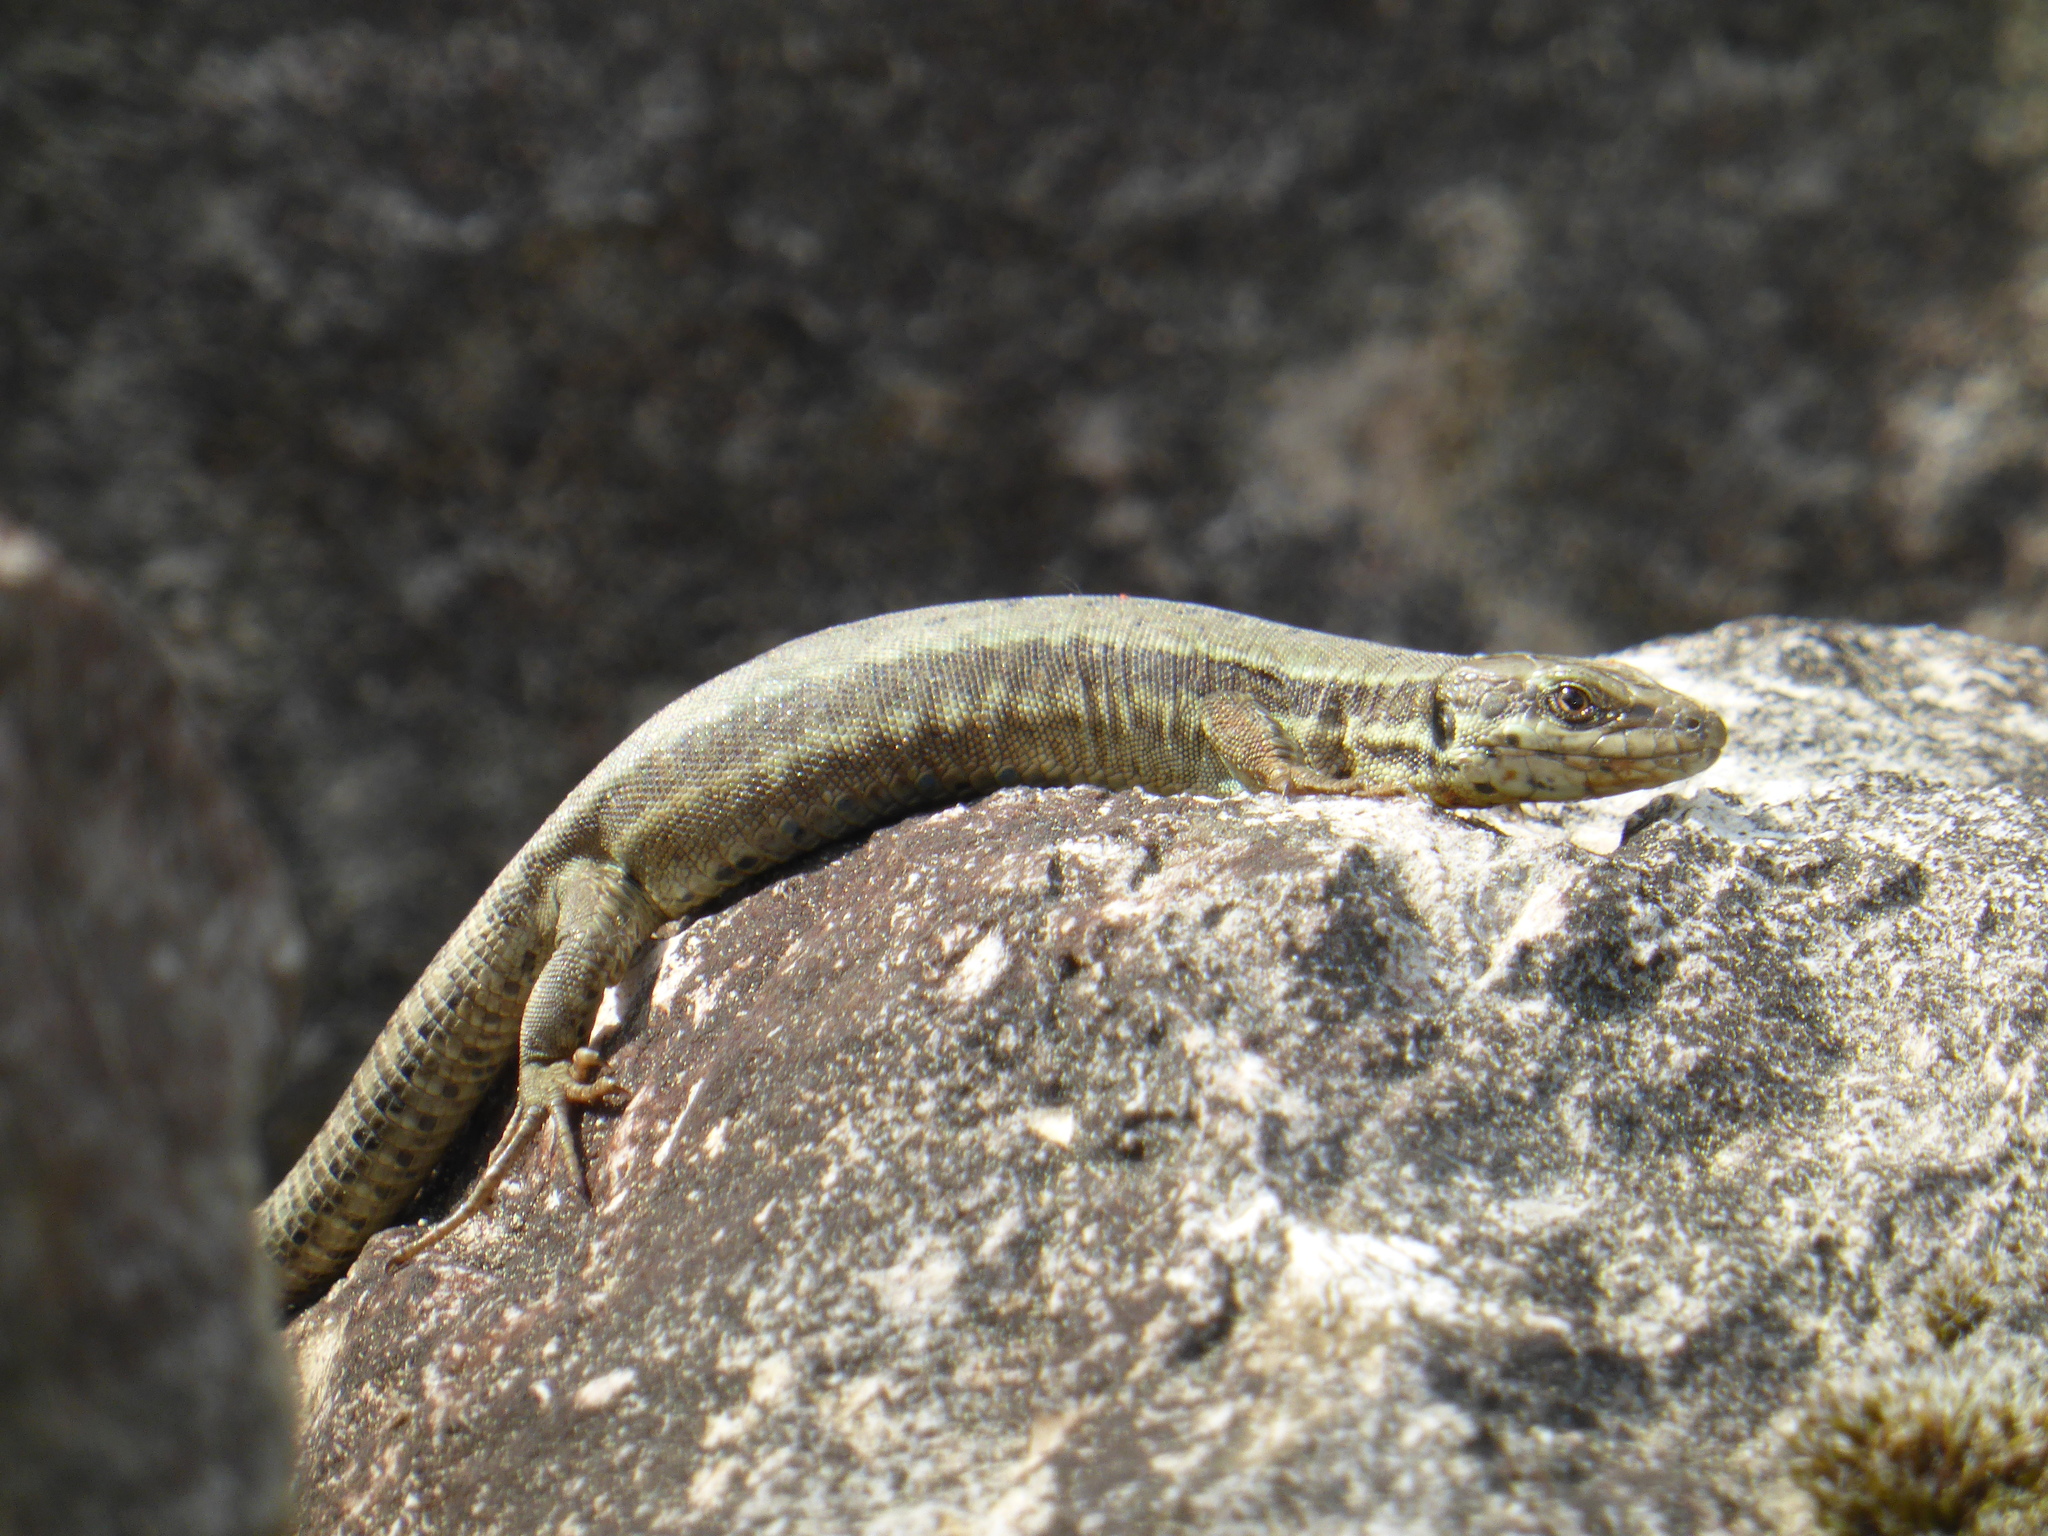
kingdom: Animalia
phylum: Chordata
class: Squamata
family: Lacertidae
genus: Podarcis
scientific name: Podarcis muralis
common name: Common wall lizard
